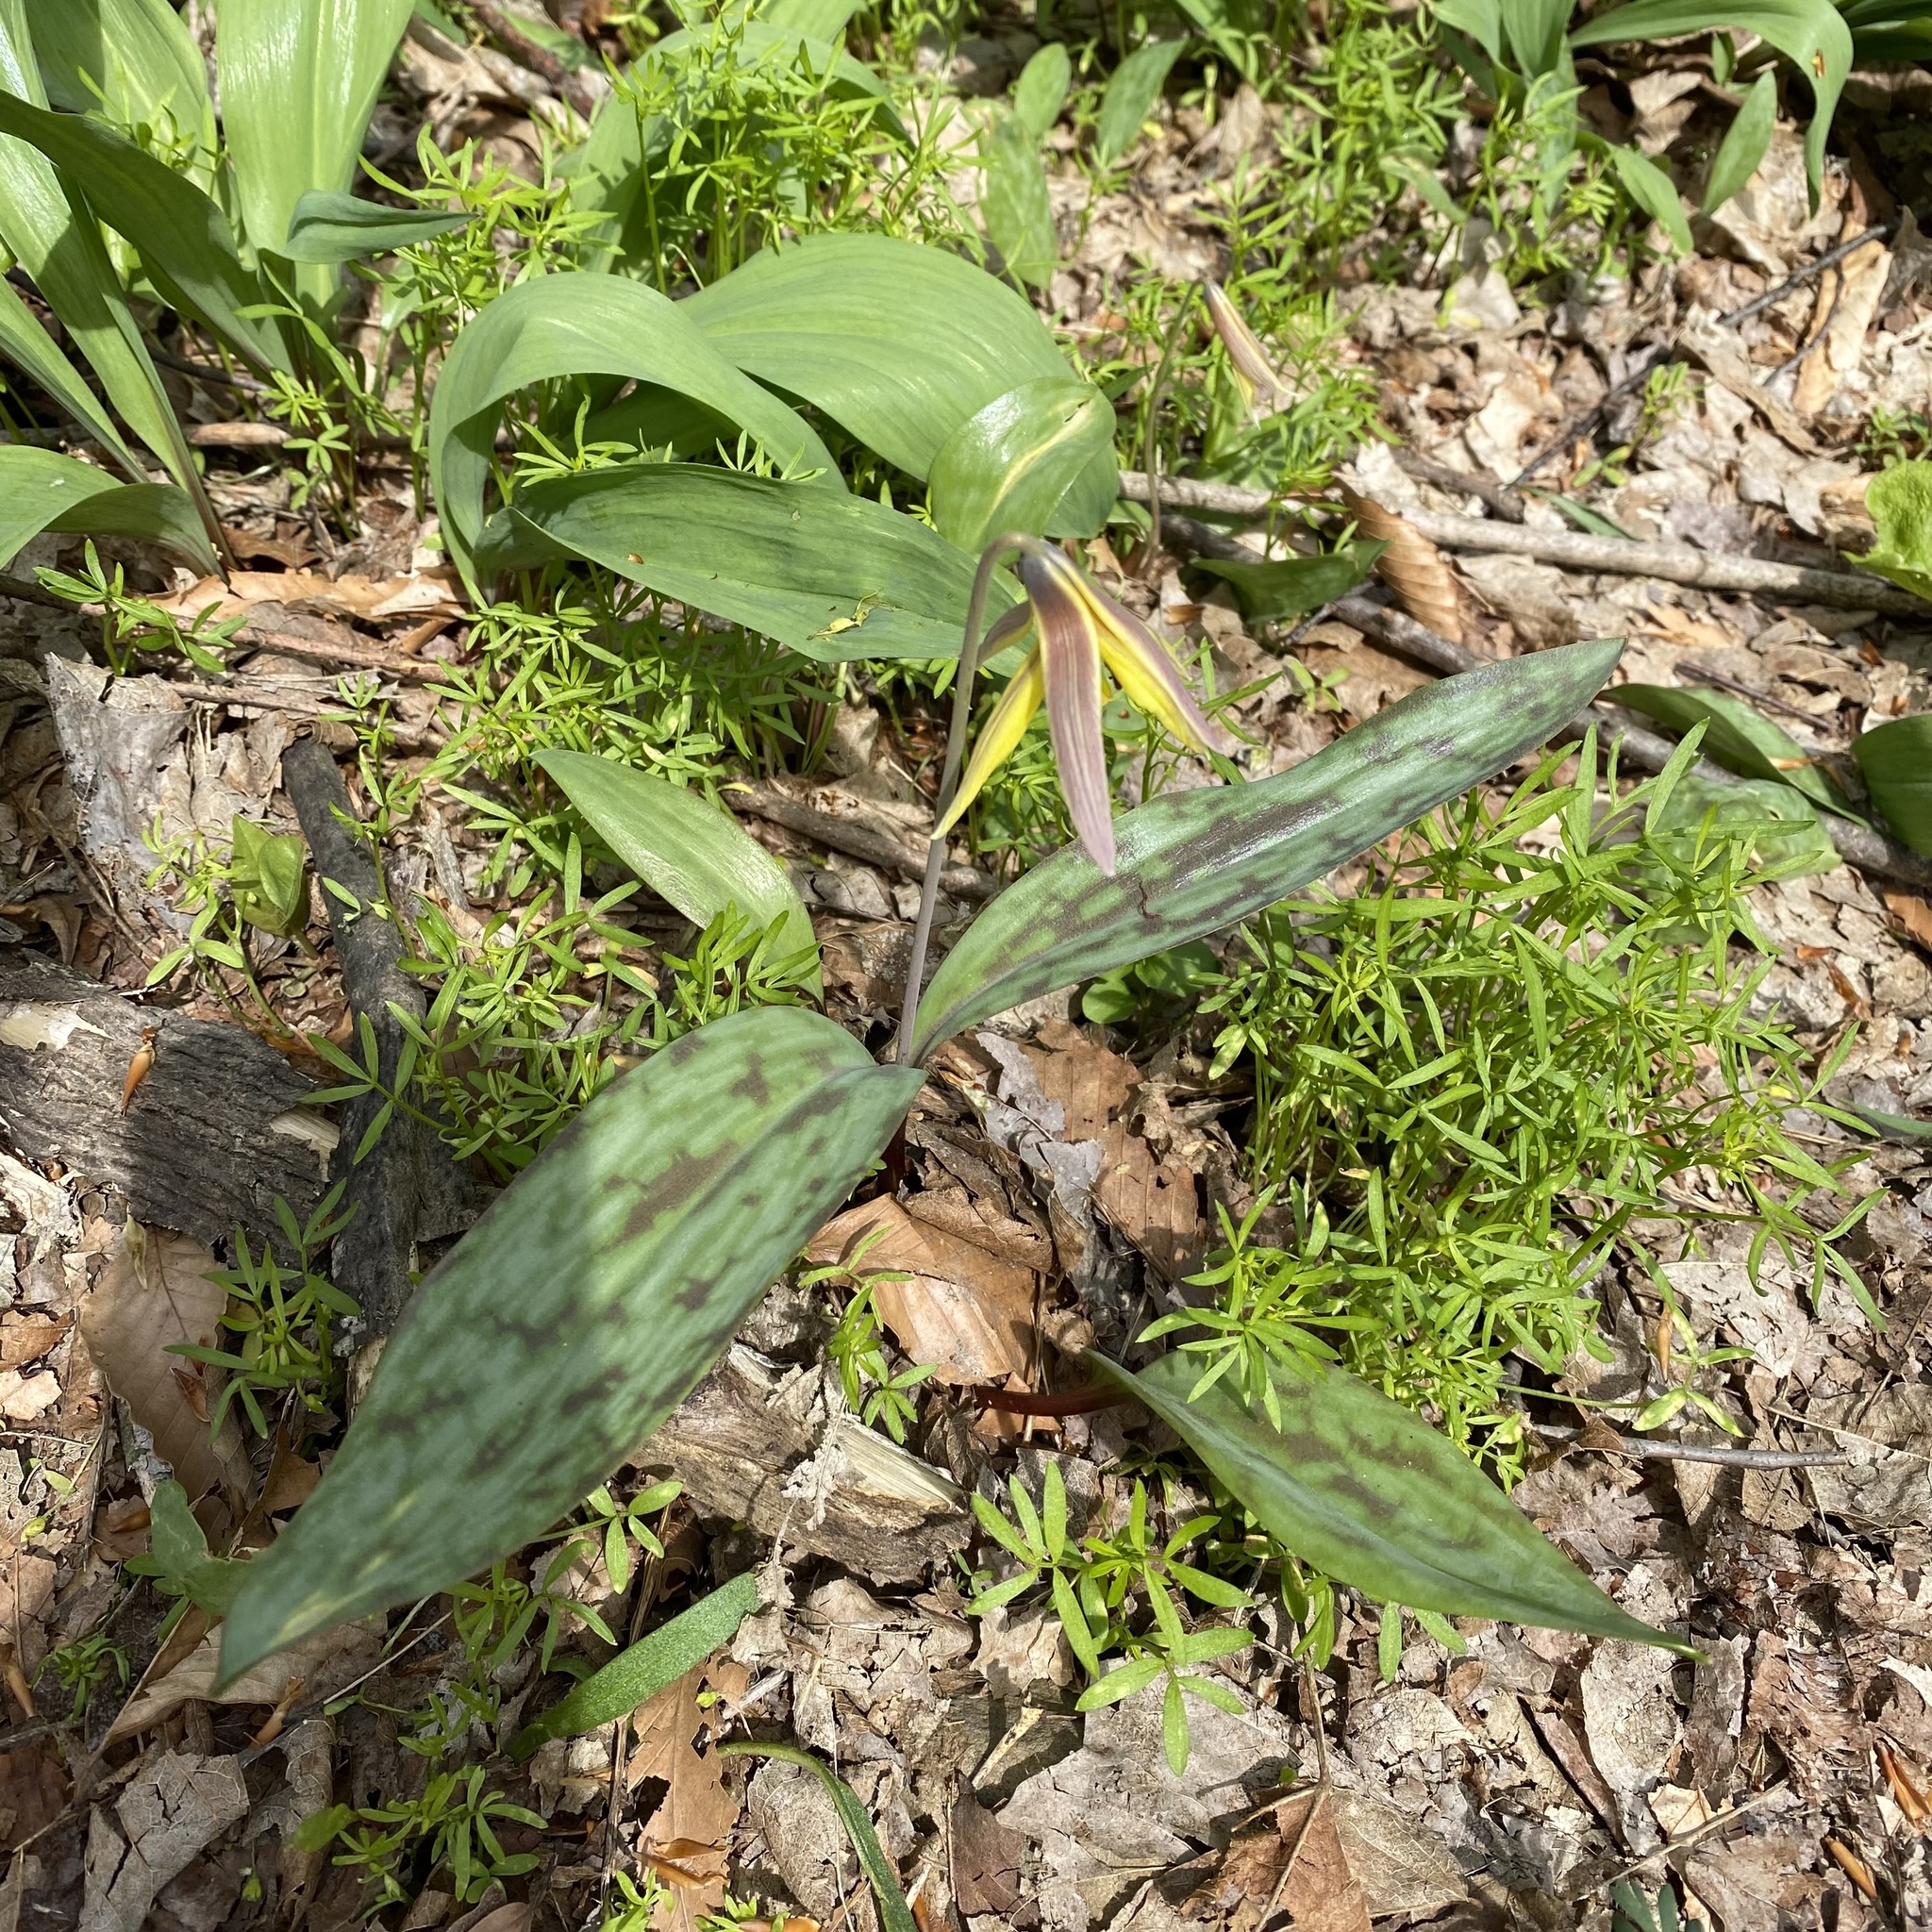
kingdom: Plantae
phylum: Tracheophyta
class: Liliopsida
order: Liliales
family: Liliaceae
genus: Erythronium
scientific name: Erythronium americanum
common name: Yellow adder's-tongue
